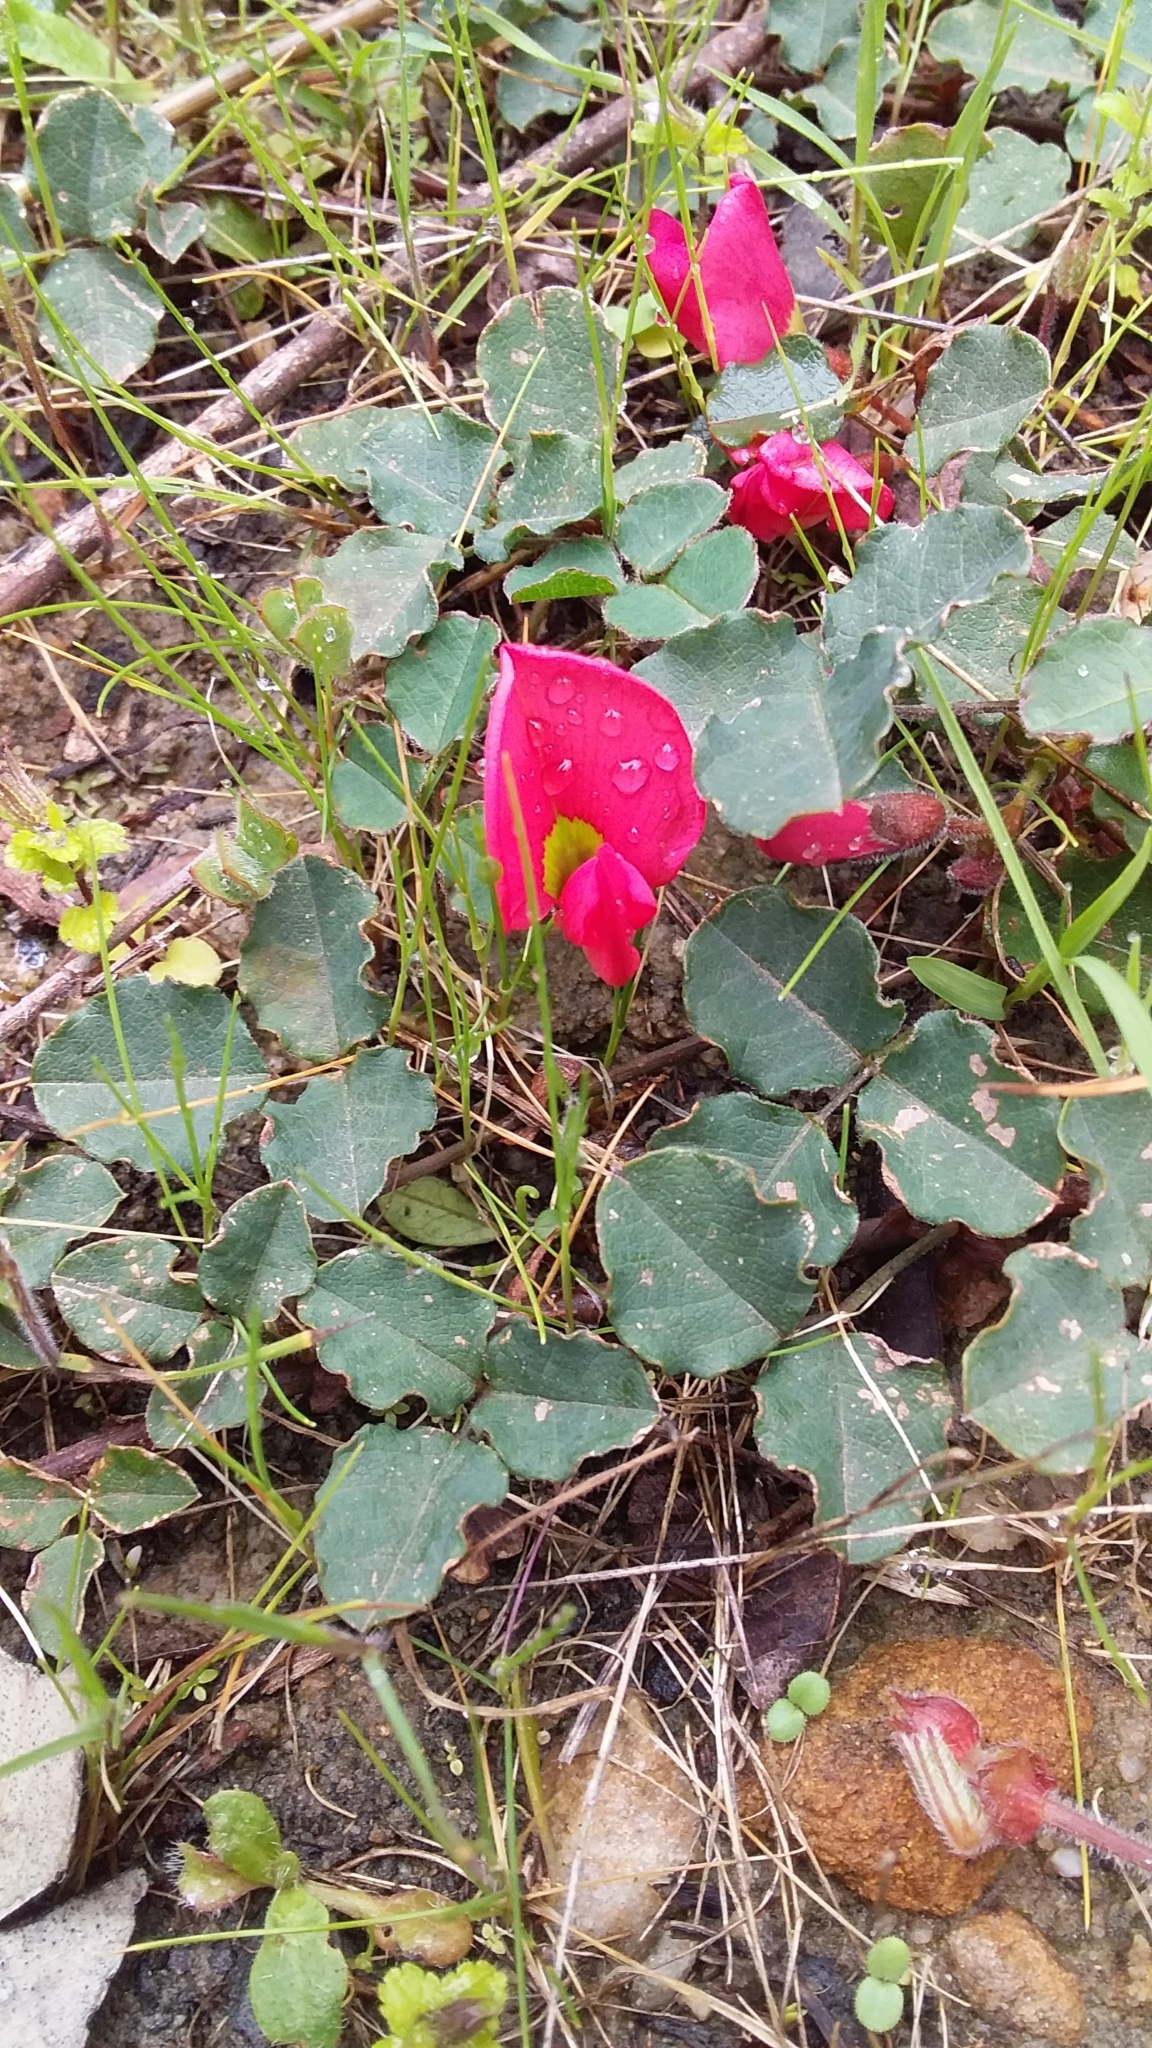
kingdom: Plantae
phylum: Tracheophyta
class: Magnoliopsida
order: Fabales
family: Fabaceae
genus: Kennedia
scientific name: Kennedia prostrata
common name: Running-postman
